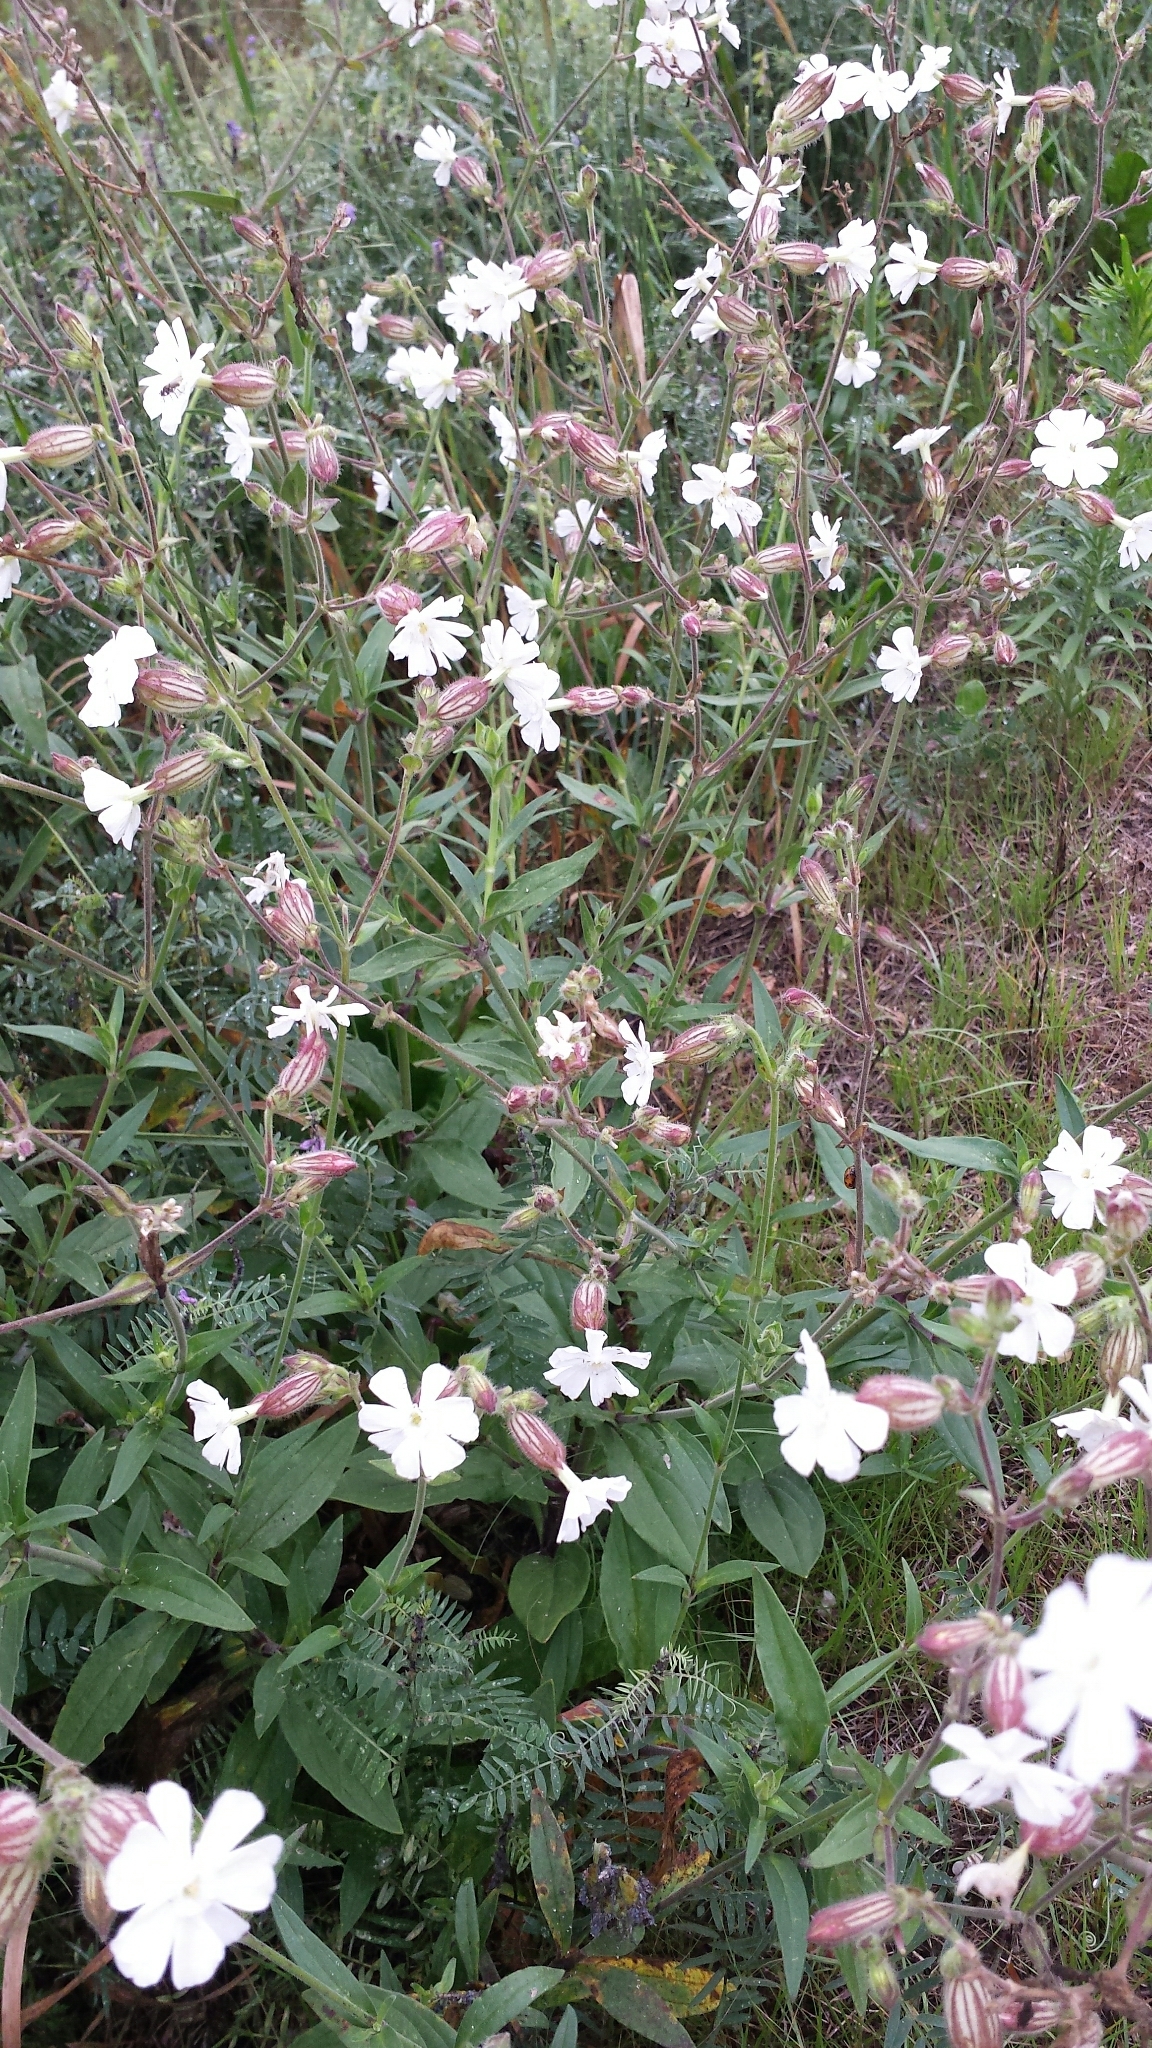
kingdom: Plantae
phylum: Tracheophyta
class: Magnoliopsida
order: Caryophyllales
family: Caryophyllaceae
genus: Silene
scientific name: Silene latifolia
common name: White campion
